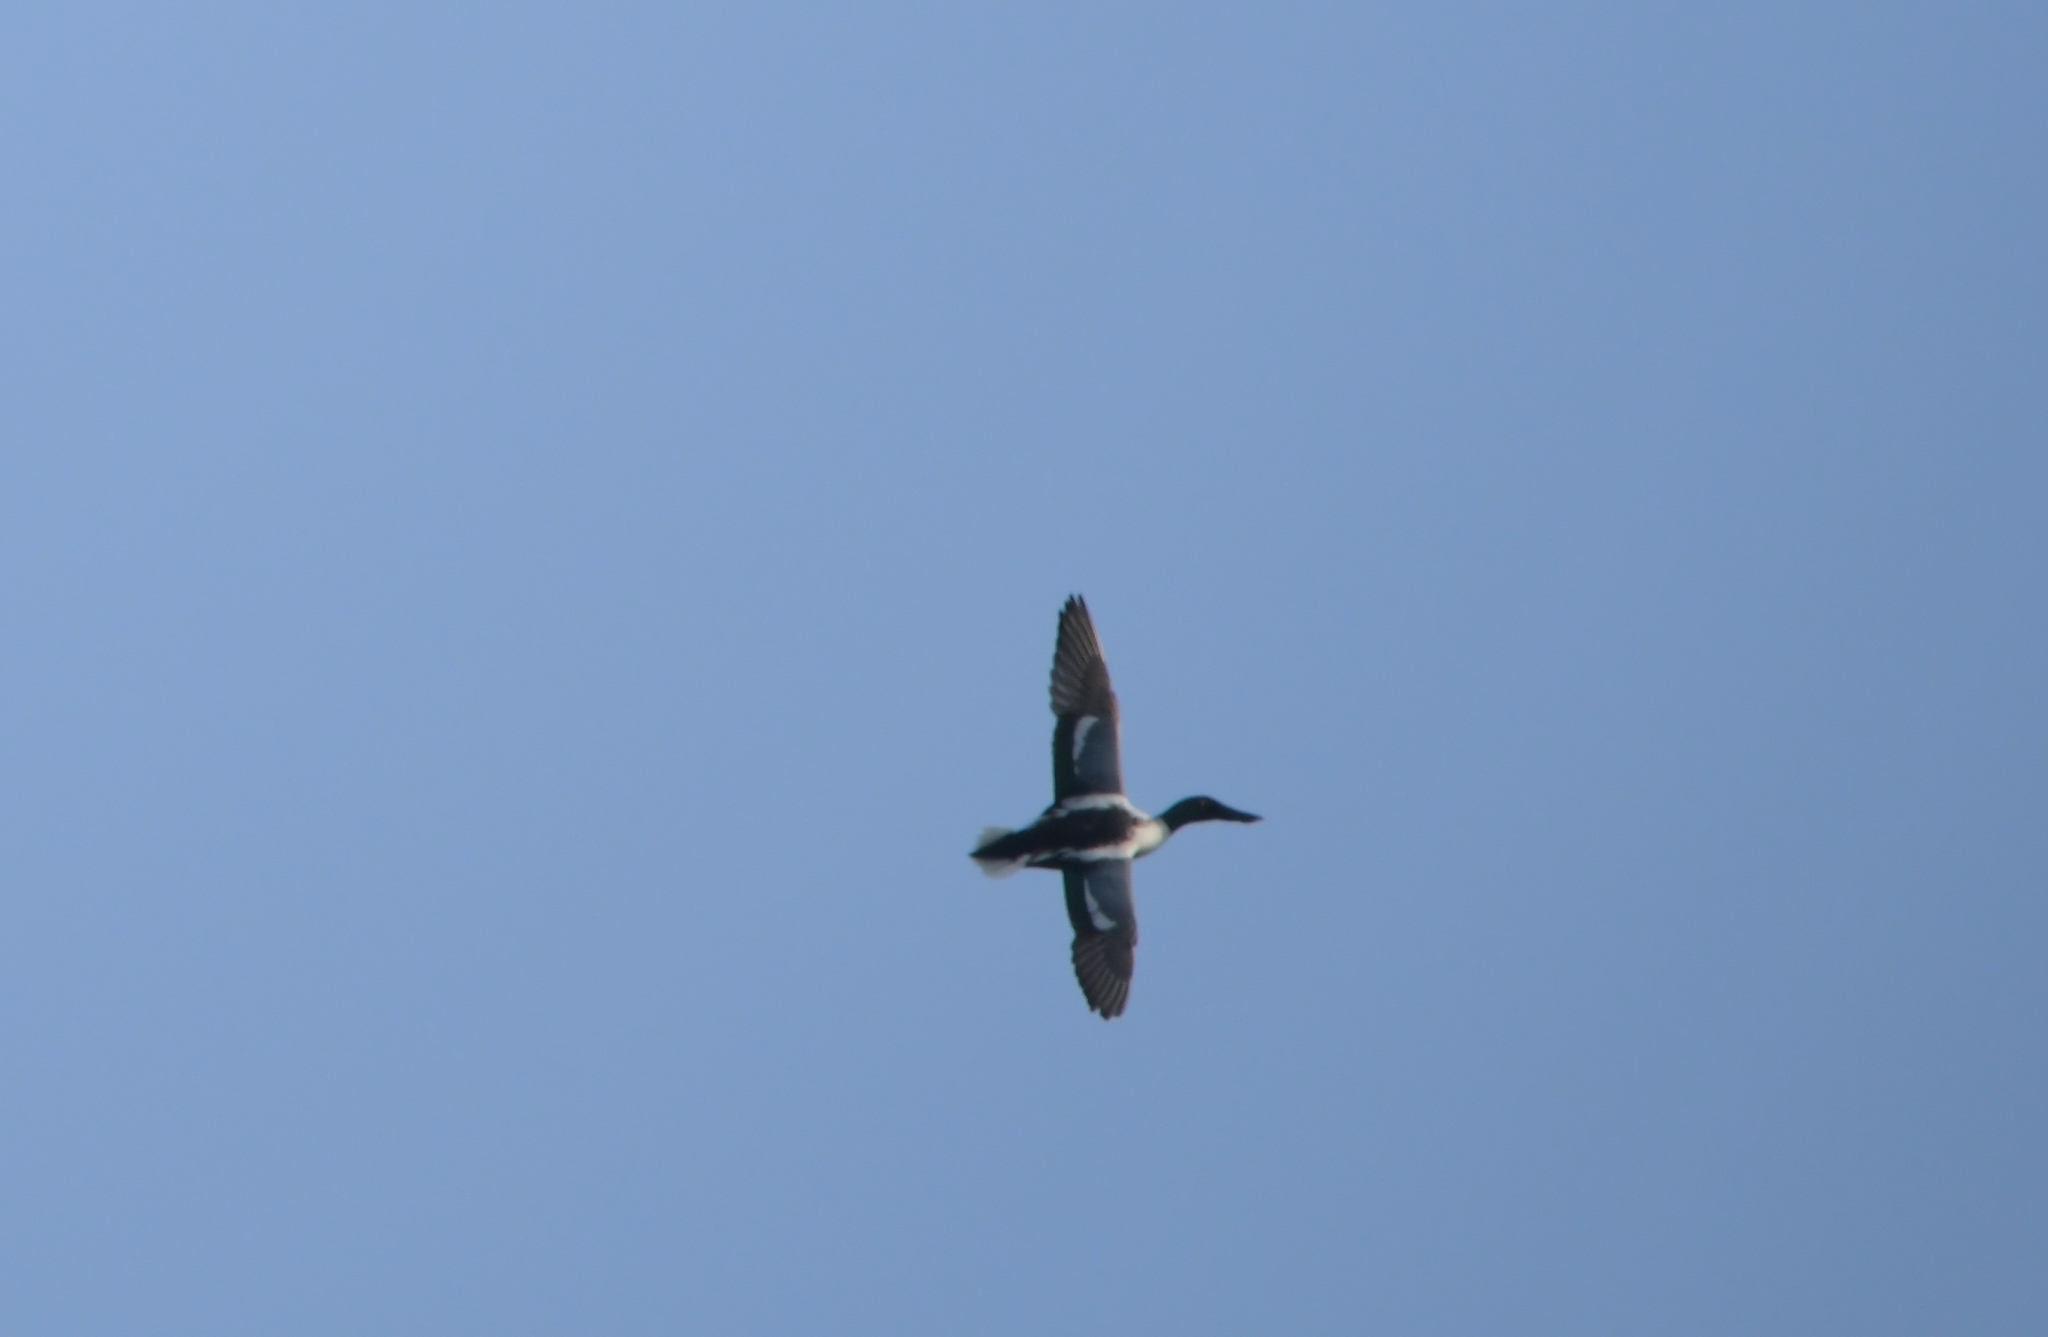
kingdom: Animalia
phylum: Chordata
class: Aves
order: Anseriformes
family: Anatidae
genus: Spatula
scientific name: Spatula clypeata
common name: Northern shoveler
